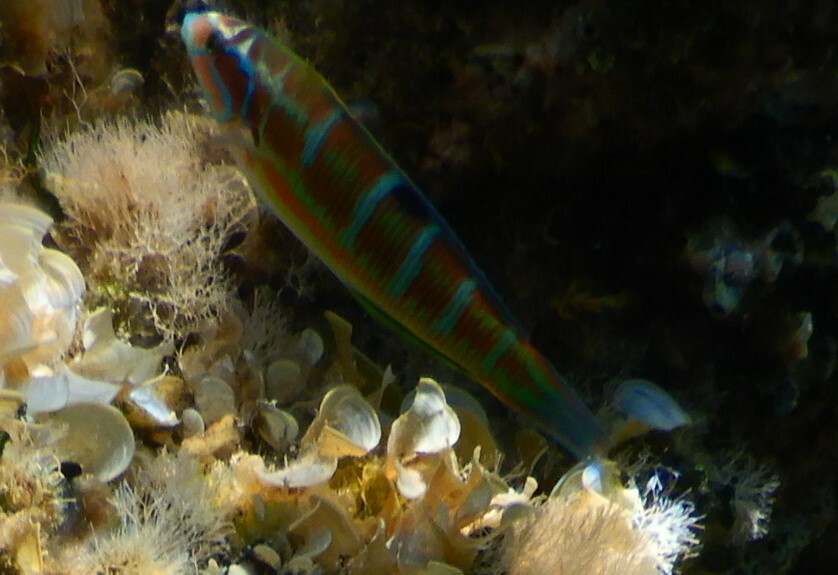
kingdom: Animalia
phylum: Chordata
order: Perciformes
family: Labridae
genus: Thalassoma
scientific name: Thalassoma pavo
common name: Ornate wrasse
